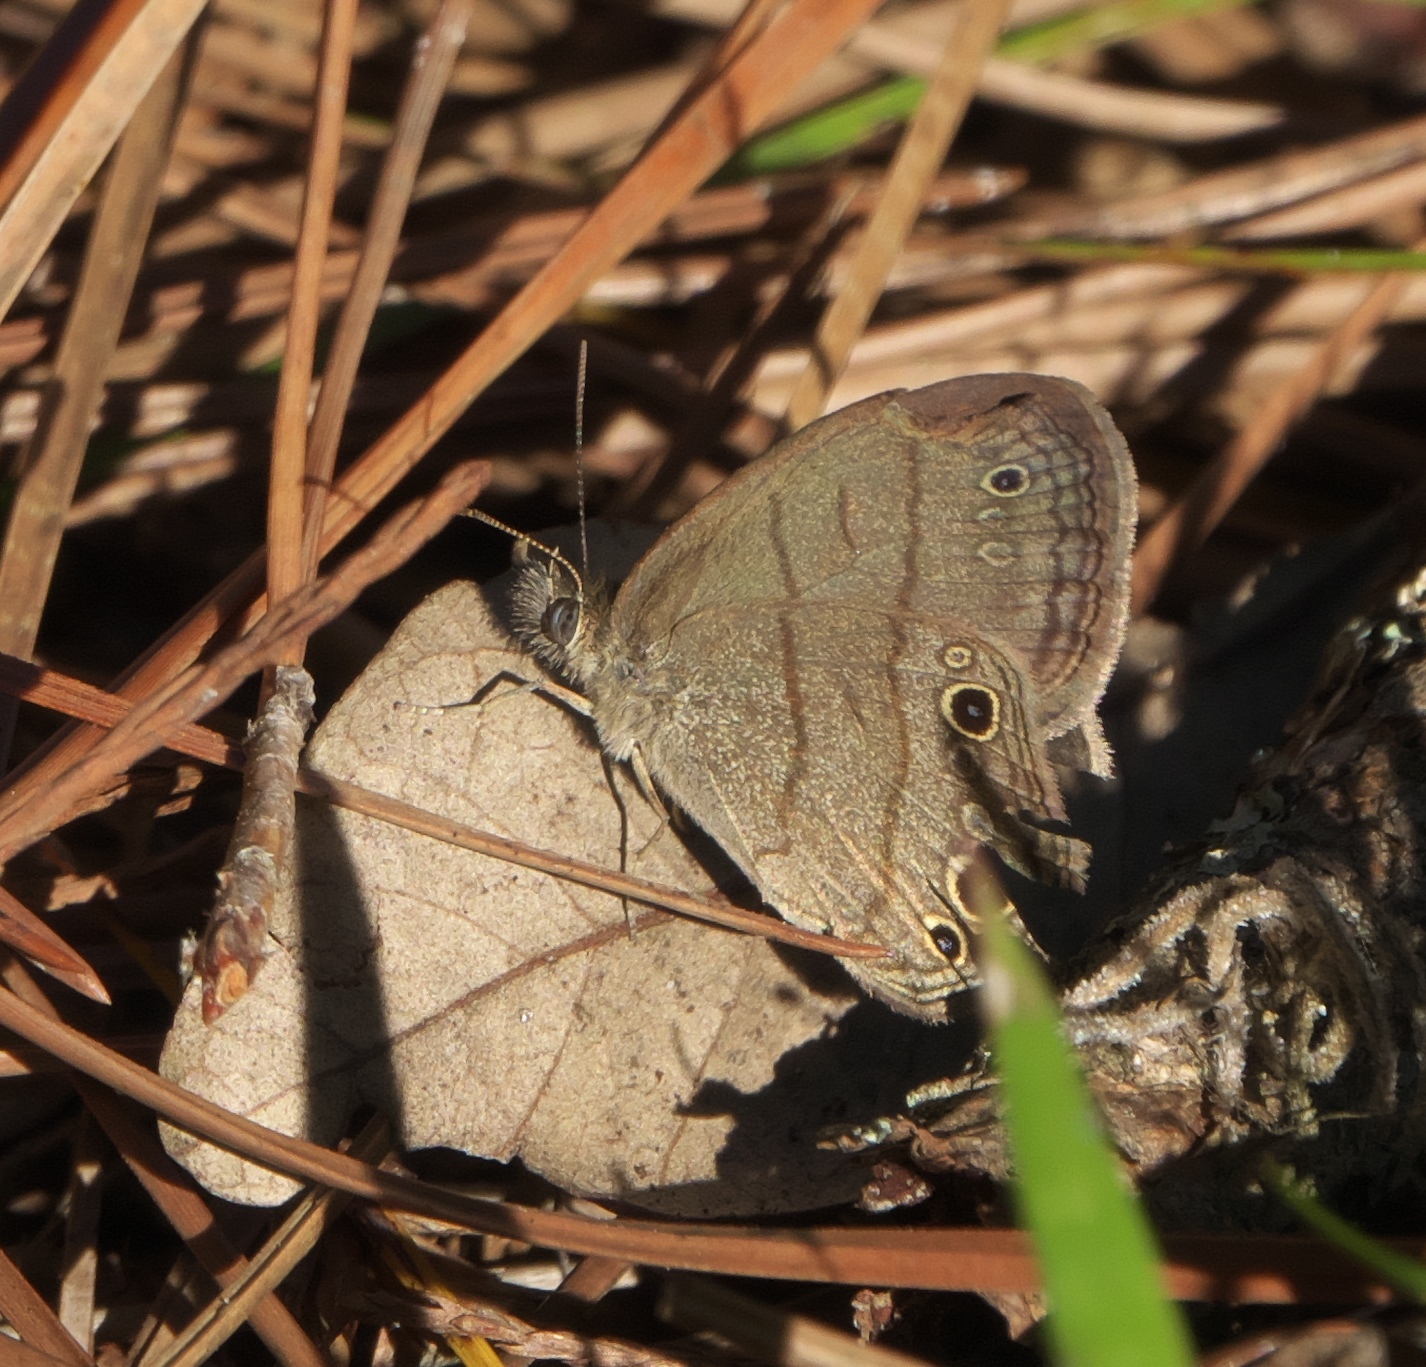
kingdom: Animalia
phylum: Arthropoda
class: Insecta
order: Lepidoptera
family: Nymphalidae
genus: Hermeuptychia
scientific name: Hermeuptychia hermes
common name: Hermes satyr
